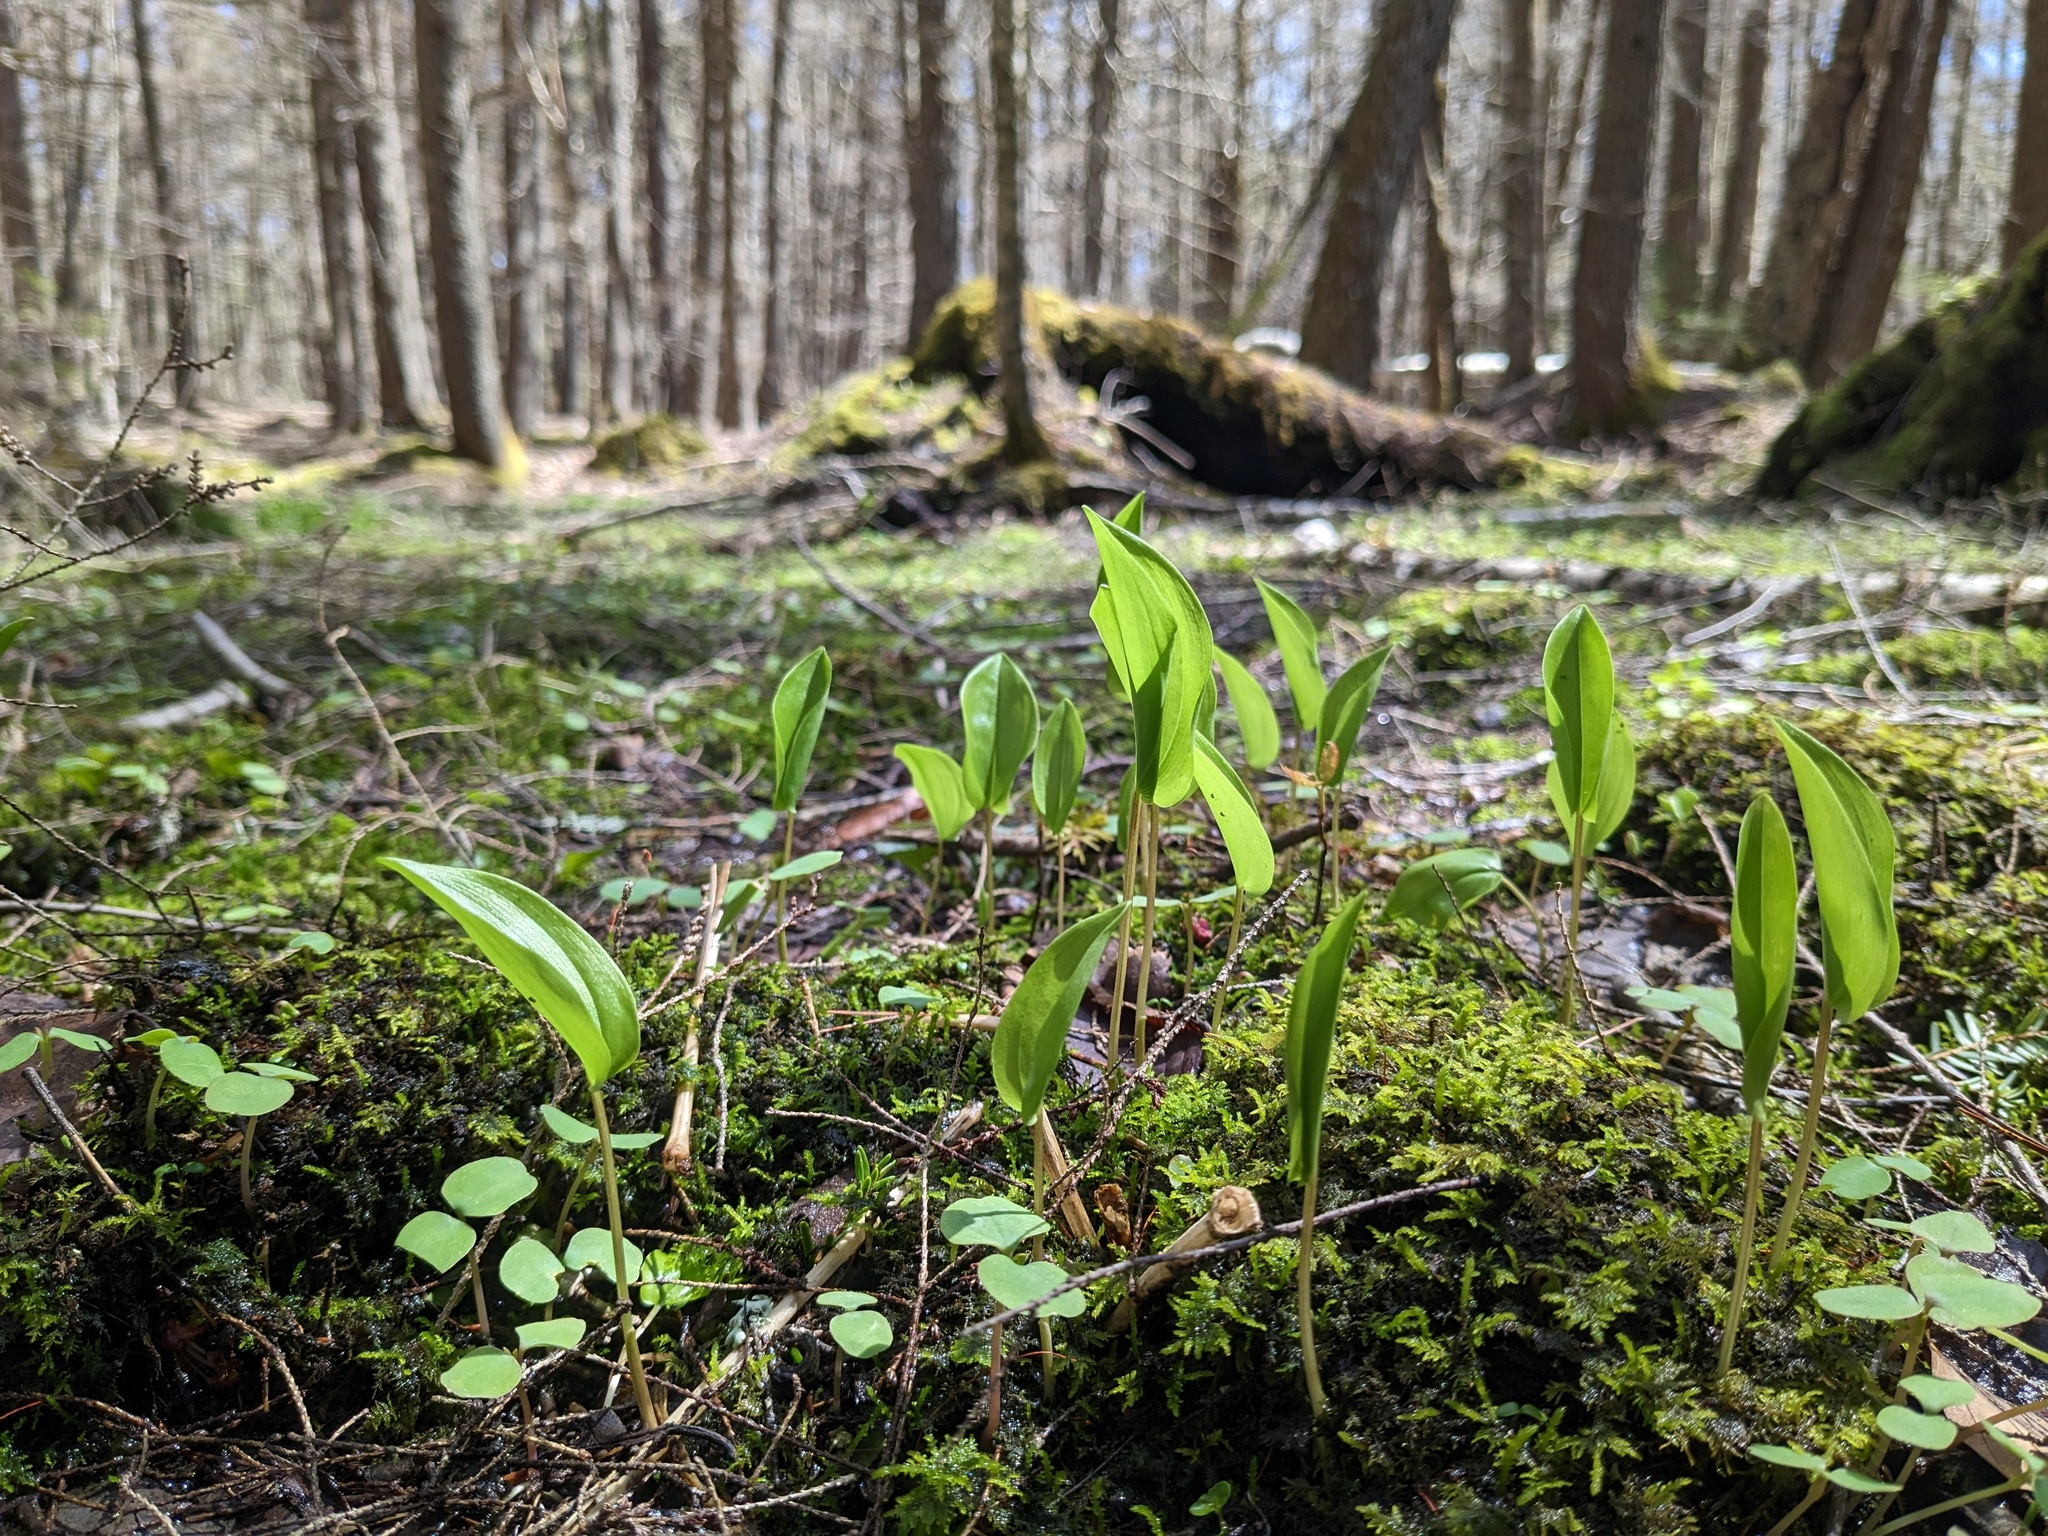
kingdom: Plantae
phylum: Tracheophyta
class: Liliopsida
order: Asparagales
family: Asparagaceae
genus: Maianthemum
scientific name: Maianthemum canadense
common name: False lily-of-the-valley
